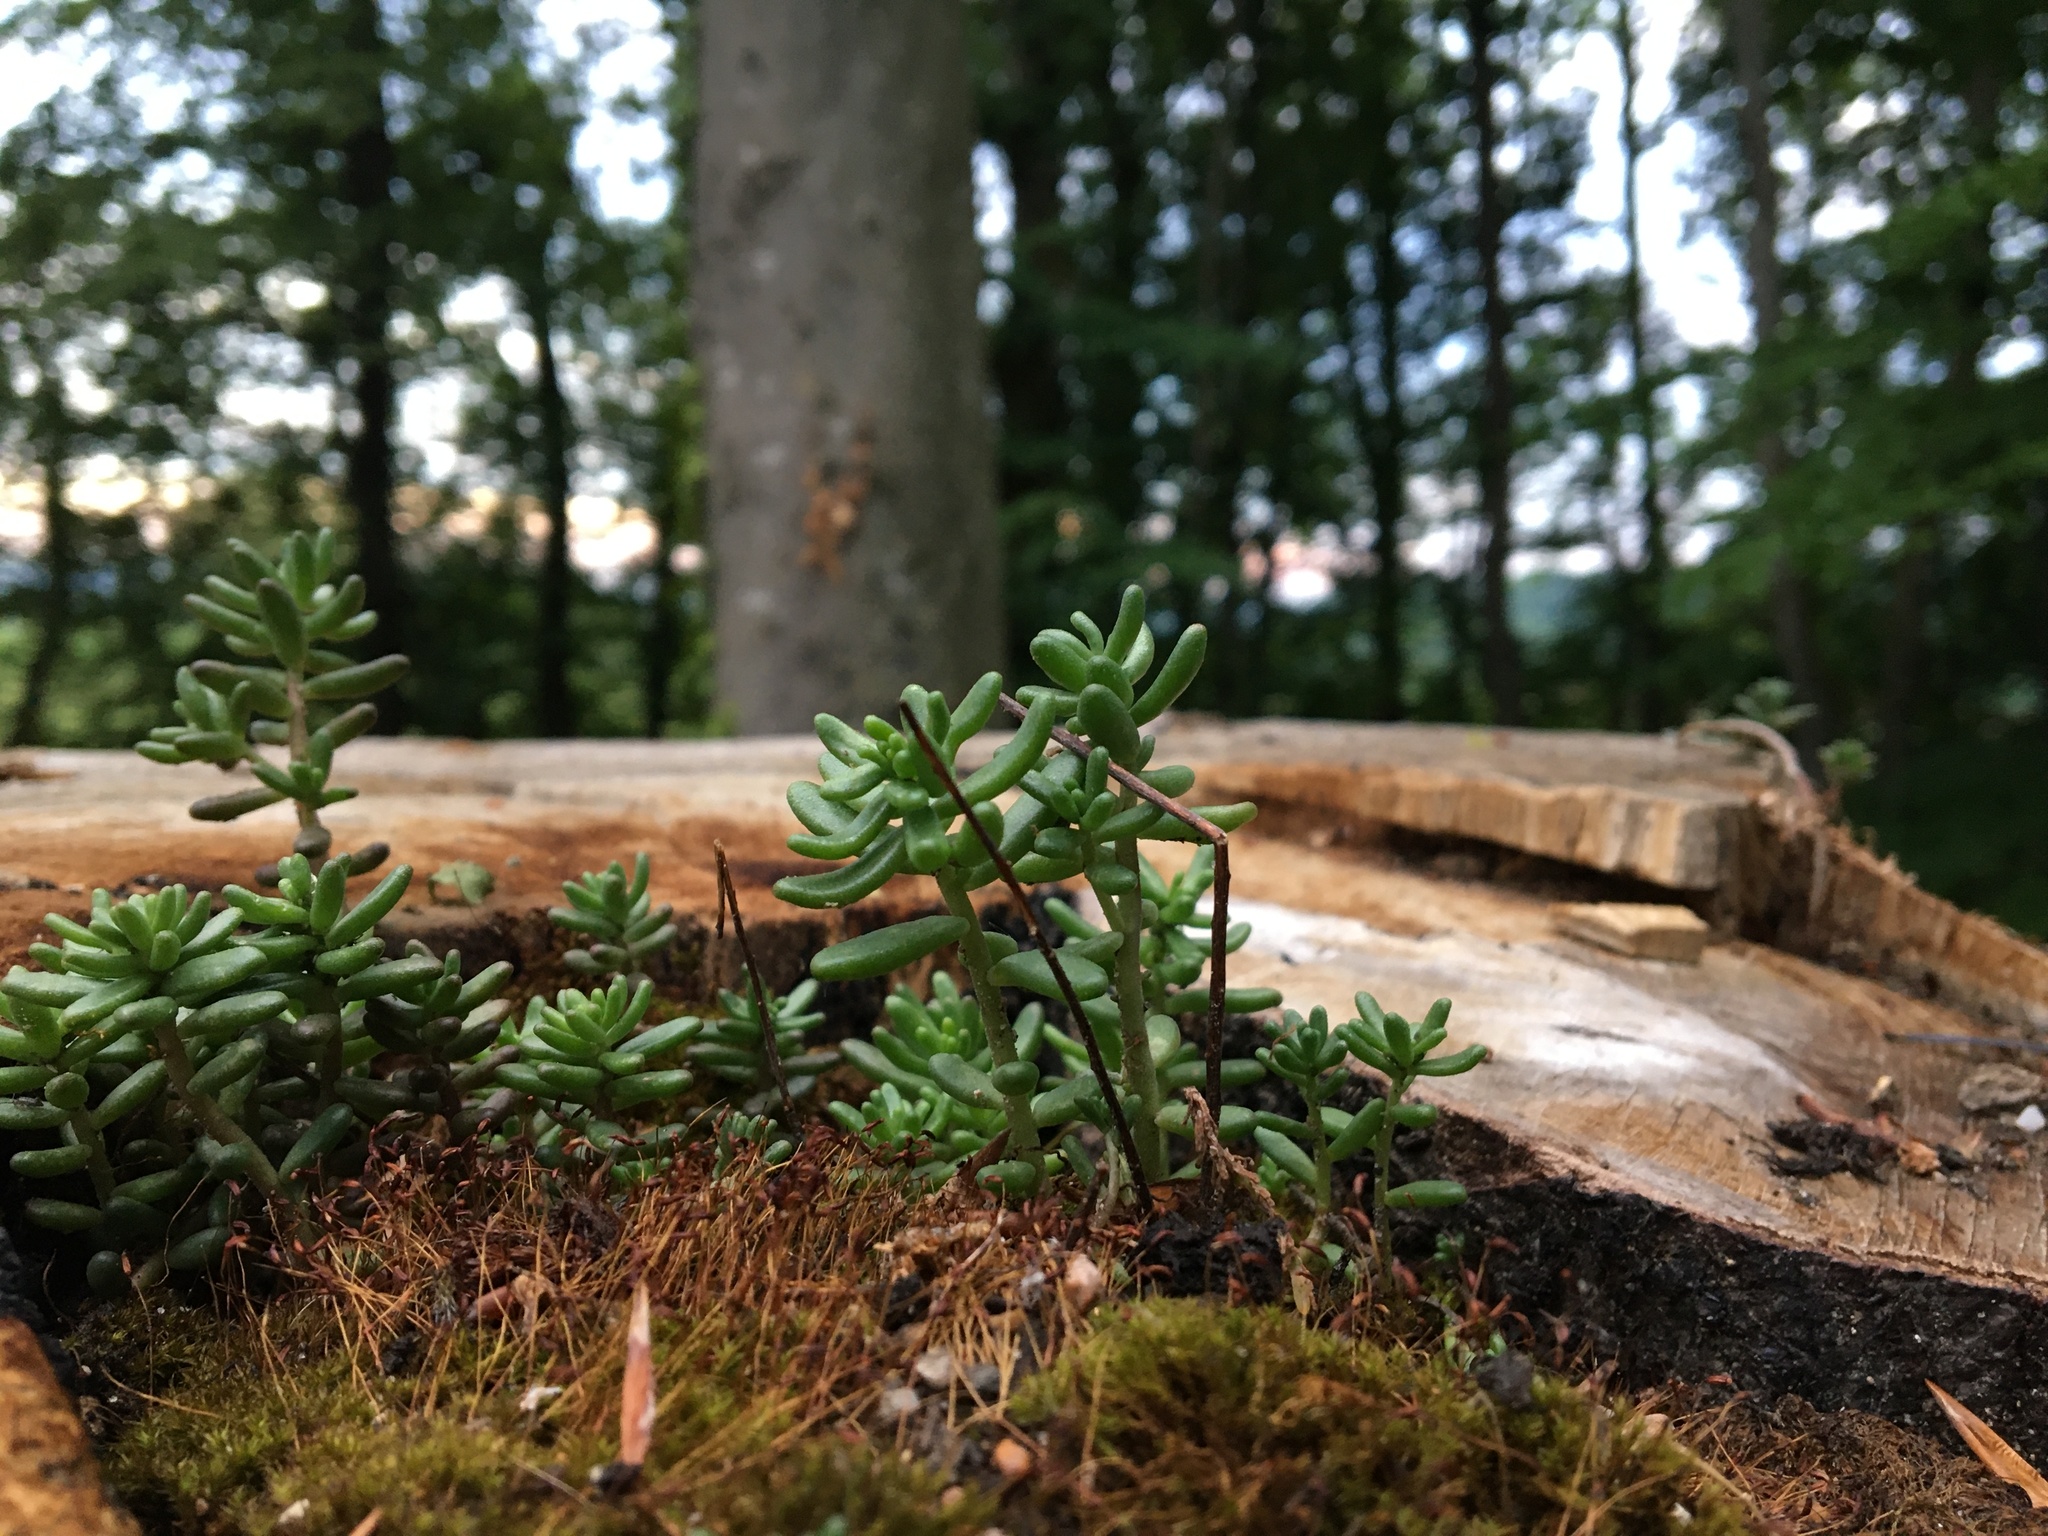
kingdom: Plantae
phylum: Tracheophyta
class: Magnoliopsida
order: Saxifragales
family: Crassulaceae
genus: Sedum
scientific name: Sedum album
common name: White stonecrop
